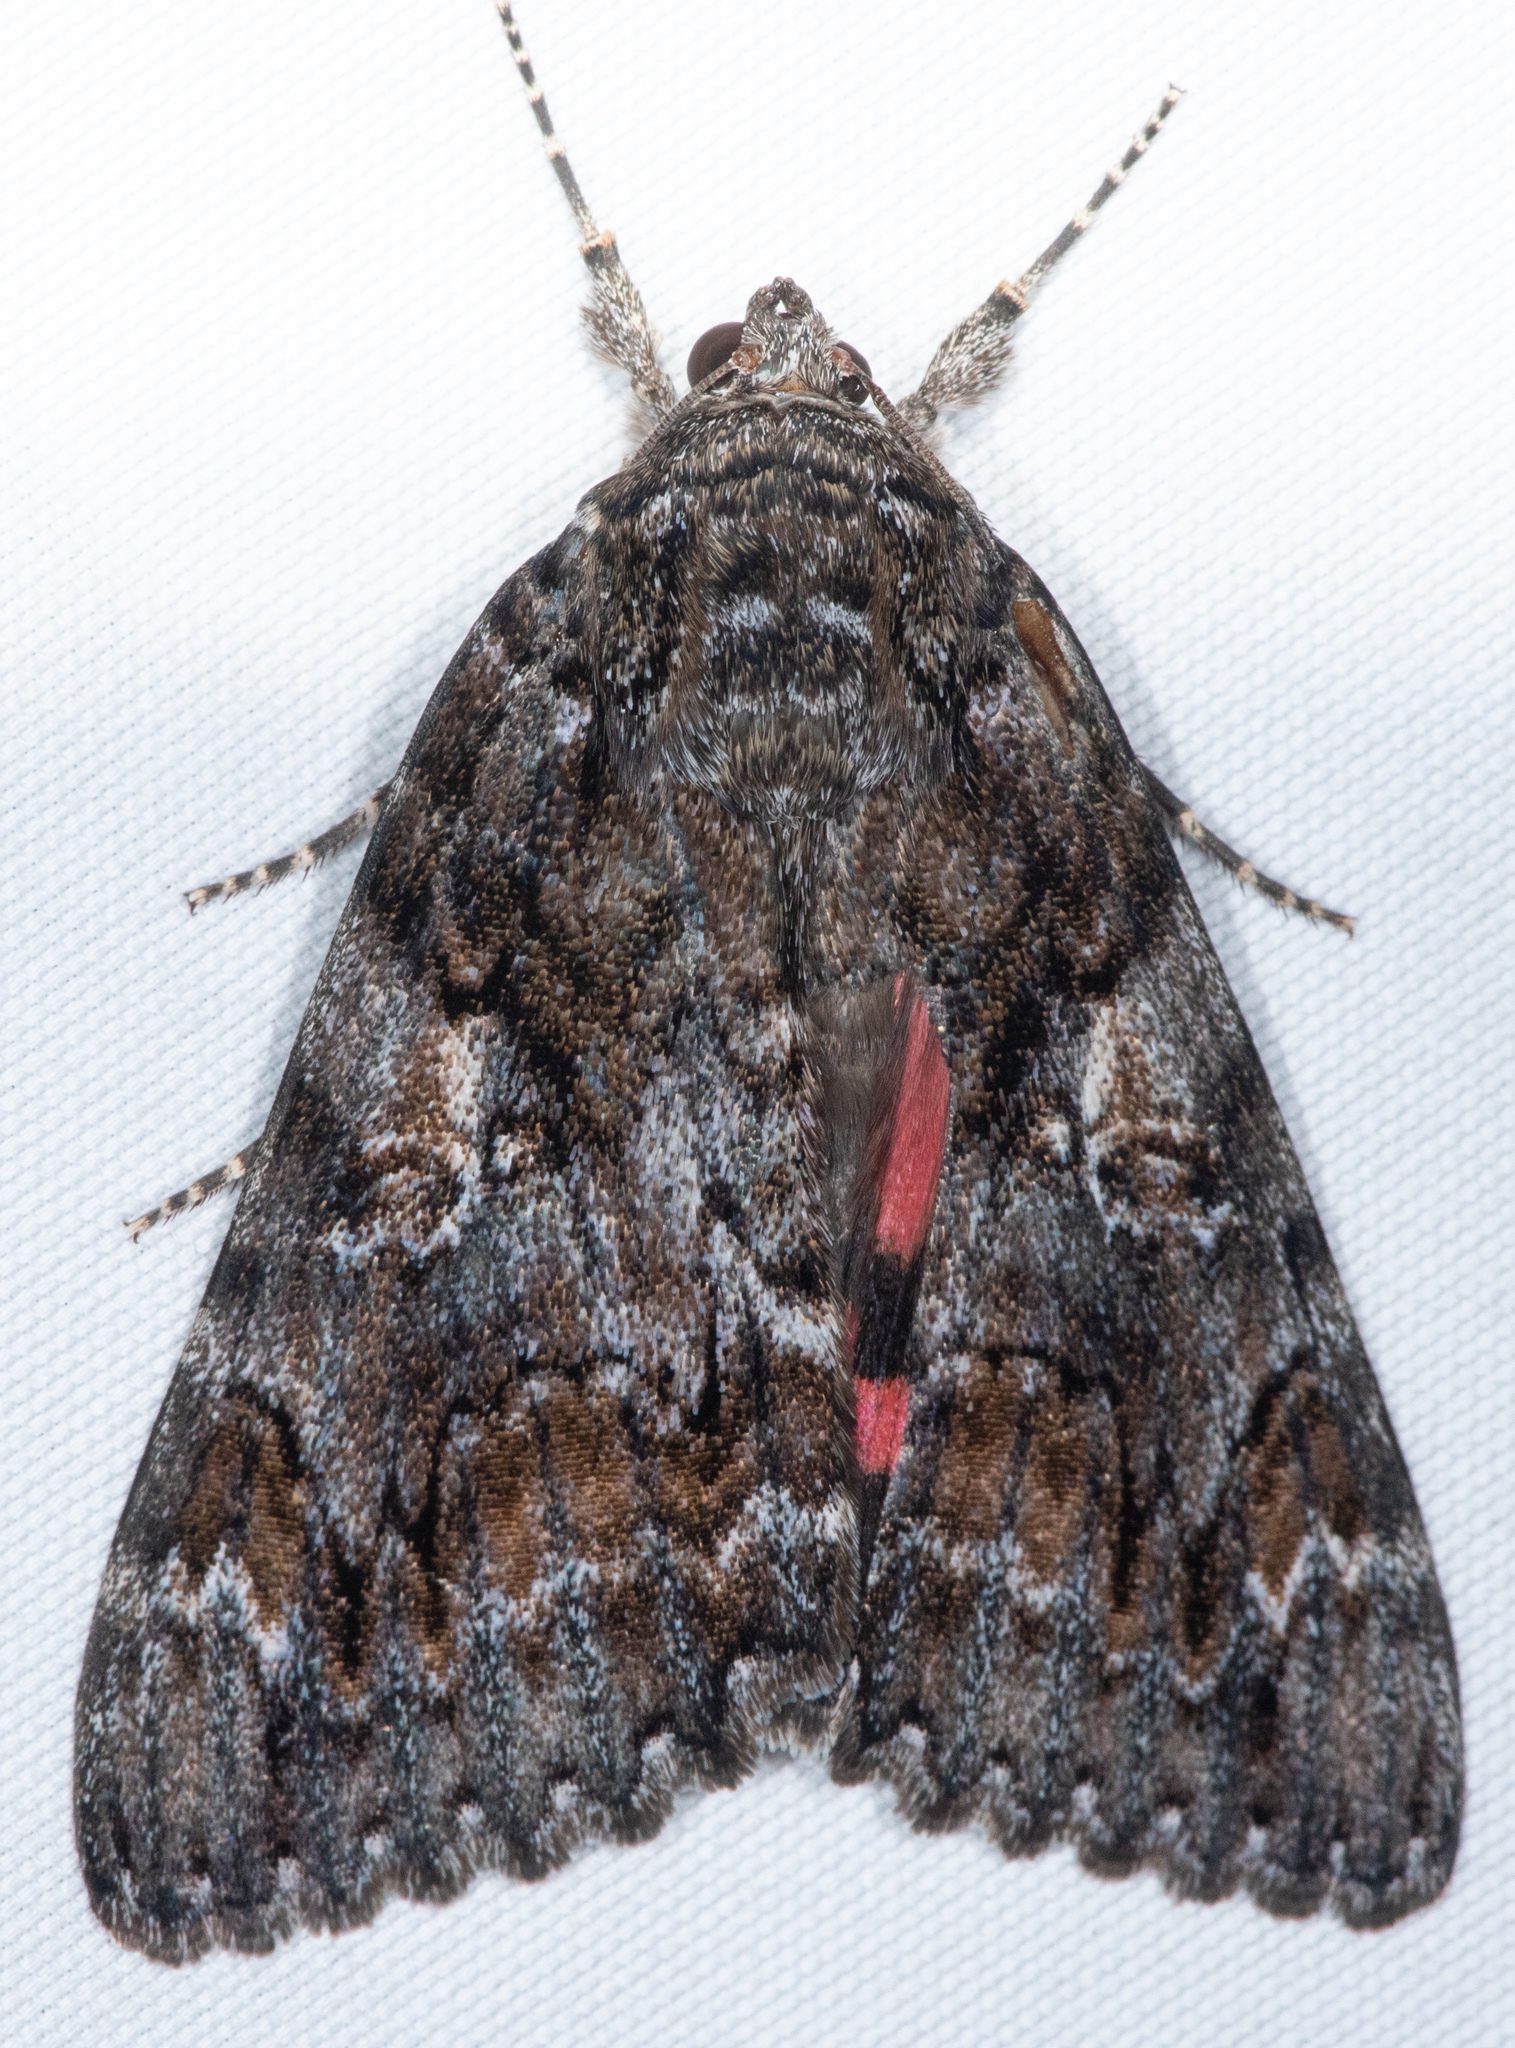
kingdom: Animalia
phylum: Arthropoda
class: Insecta
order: Lepidoptera
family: Erebidae
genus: Catocala
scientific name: Catocala aholibah
